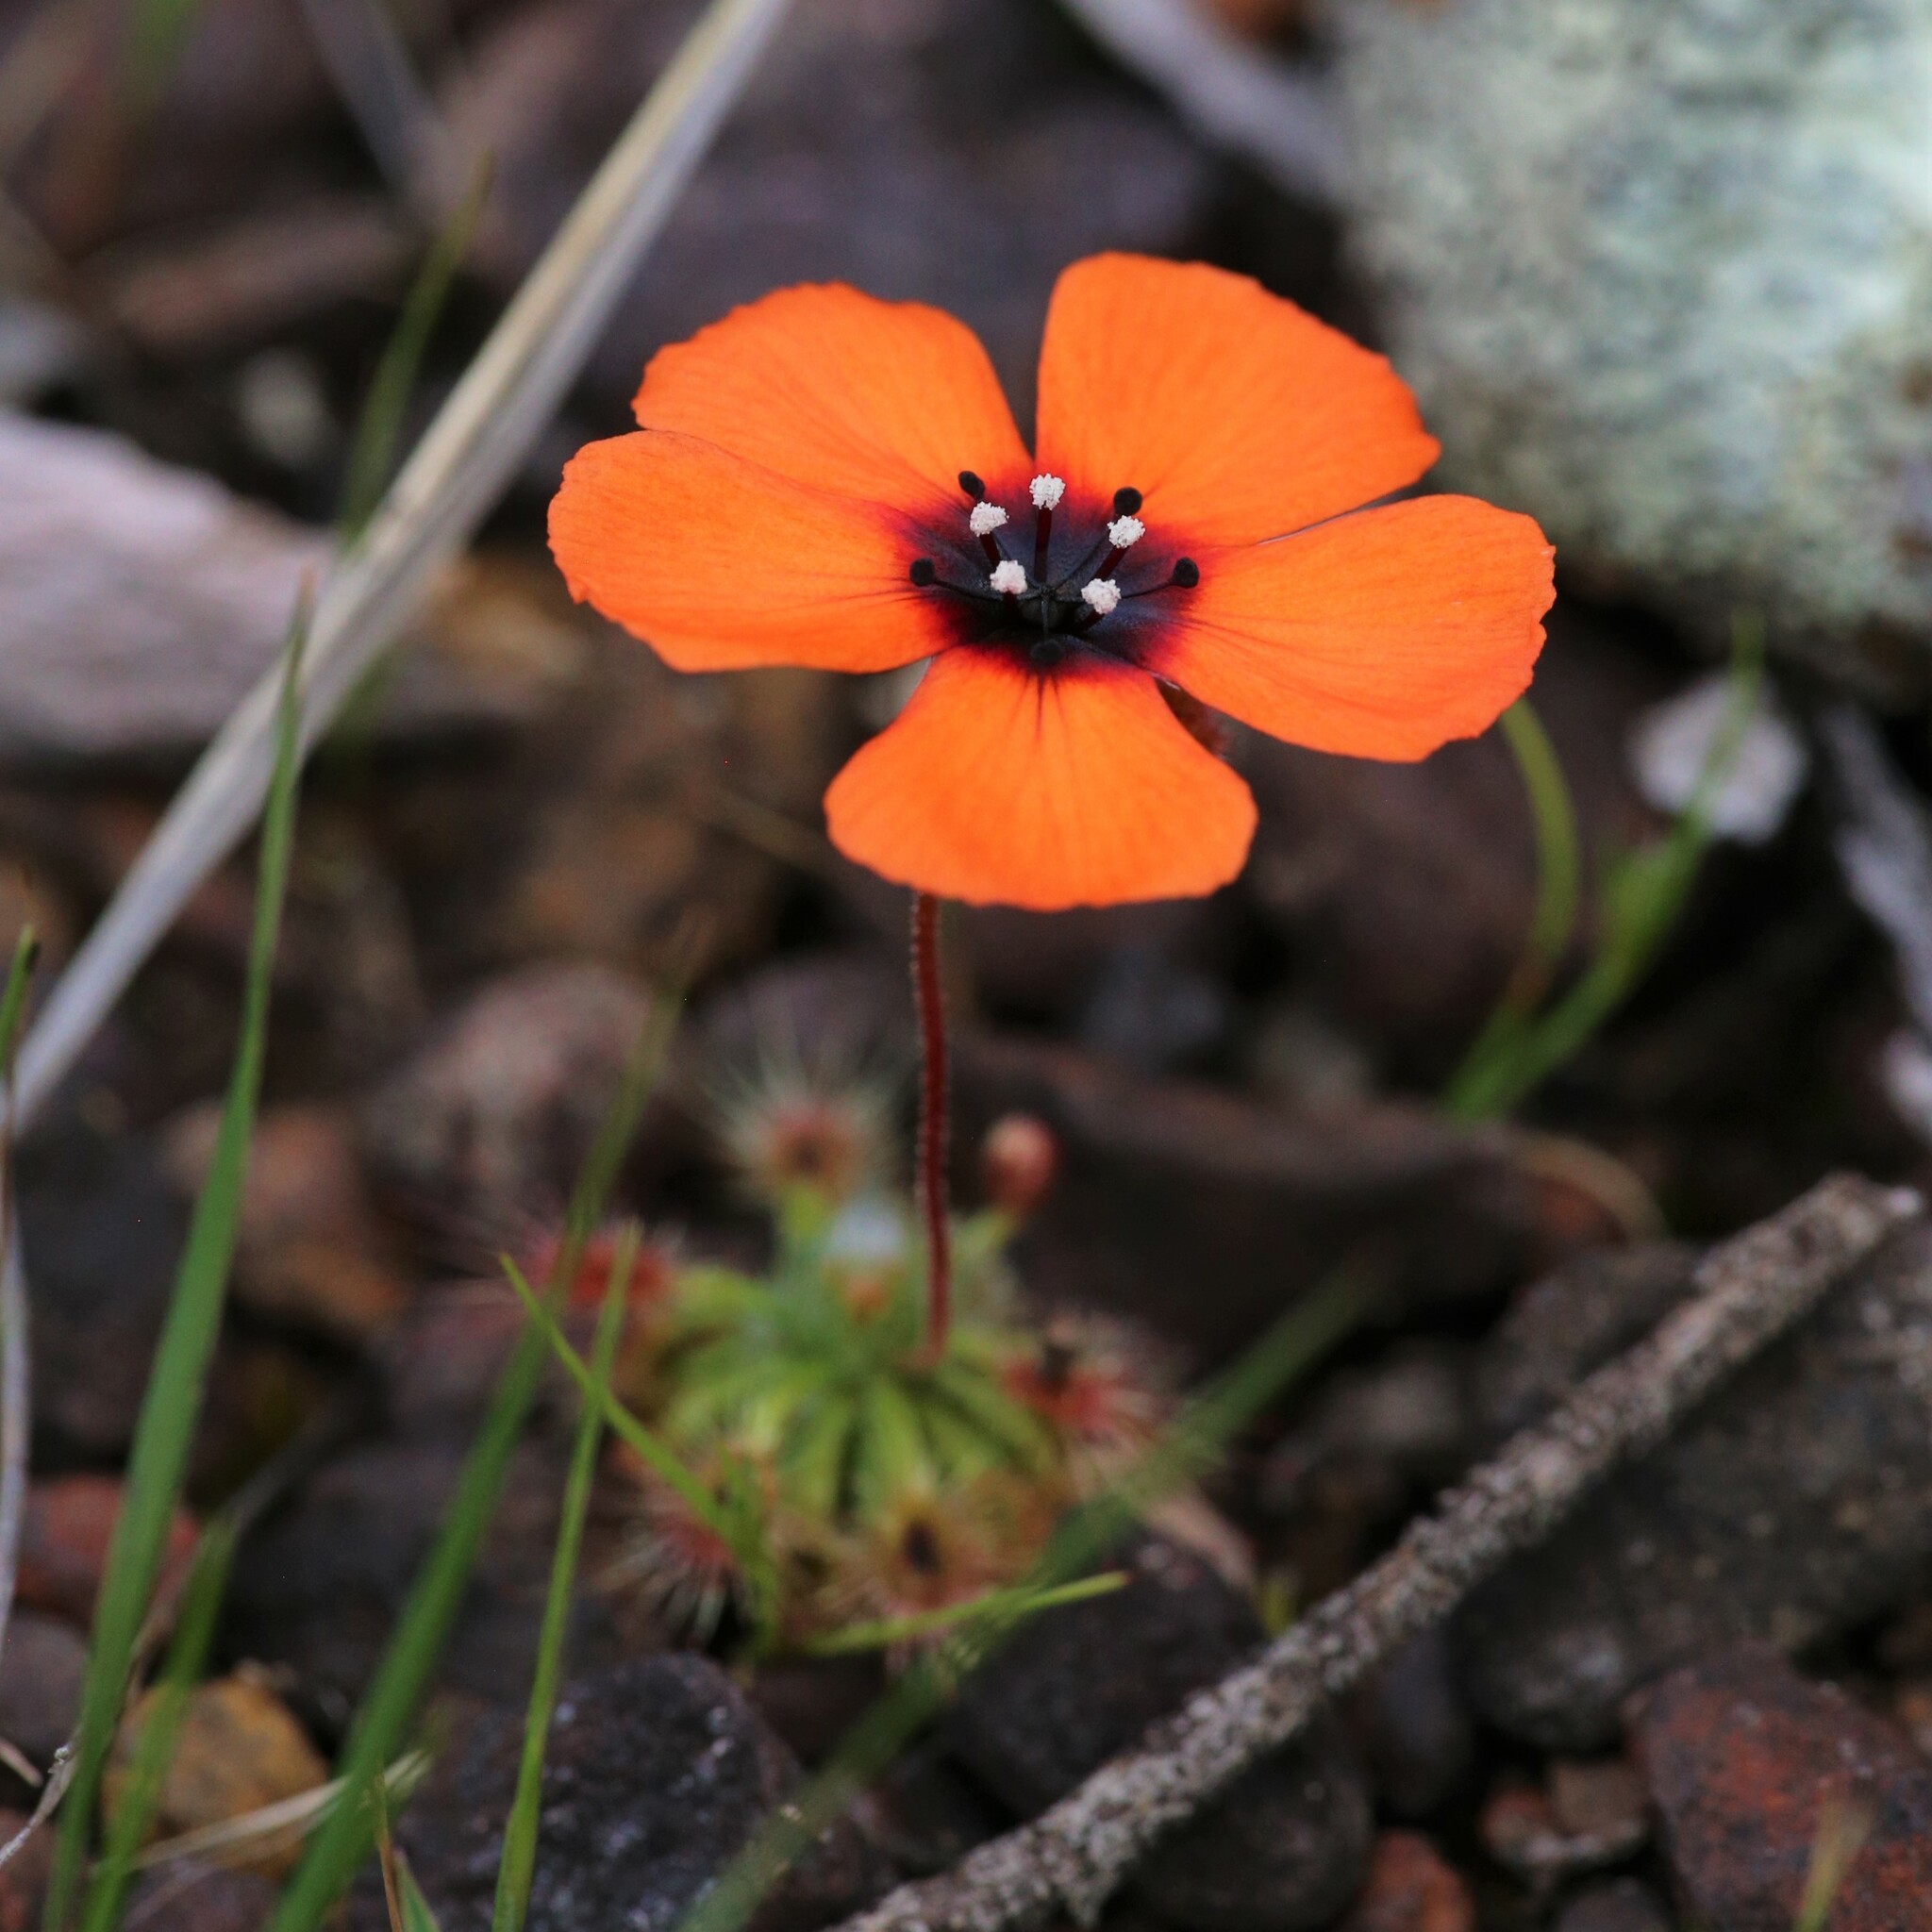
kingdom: Plantae
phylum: Tracheophyta
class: Magnoliopsida
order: Caryophyllales
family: Droseraceae
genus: Drosera
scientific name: Drosera sewelliae
